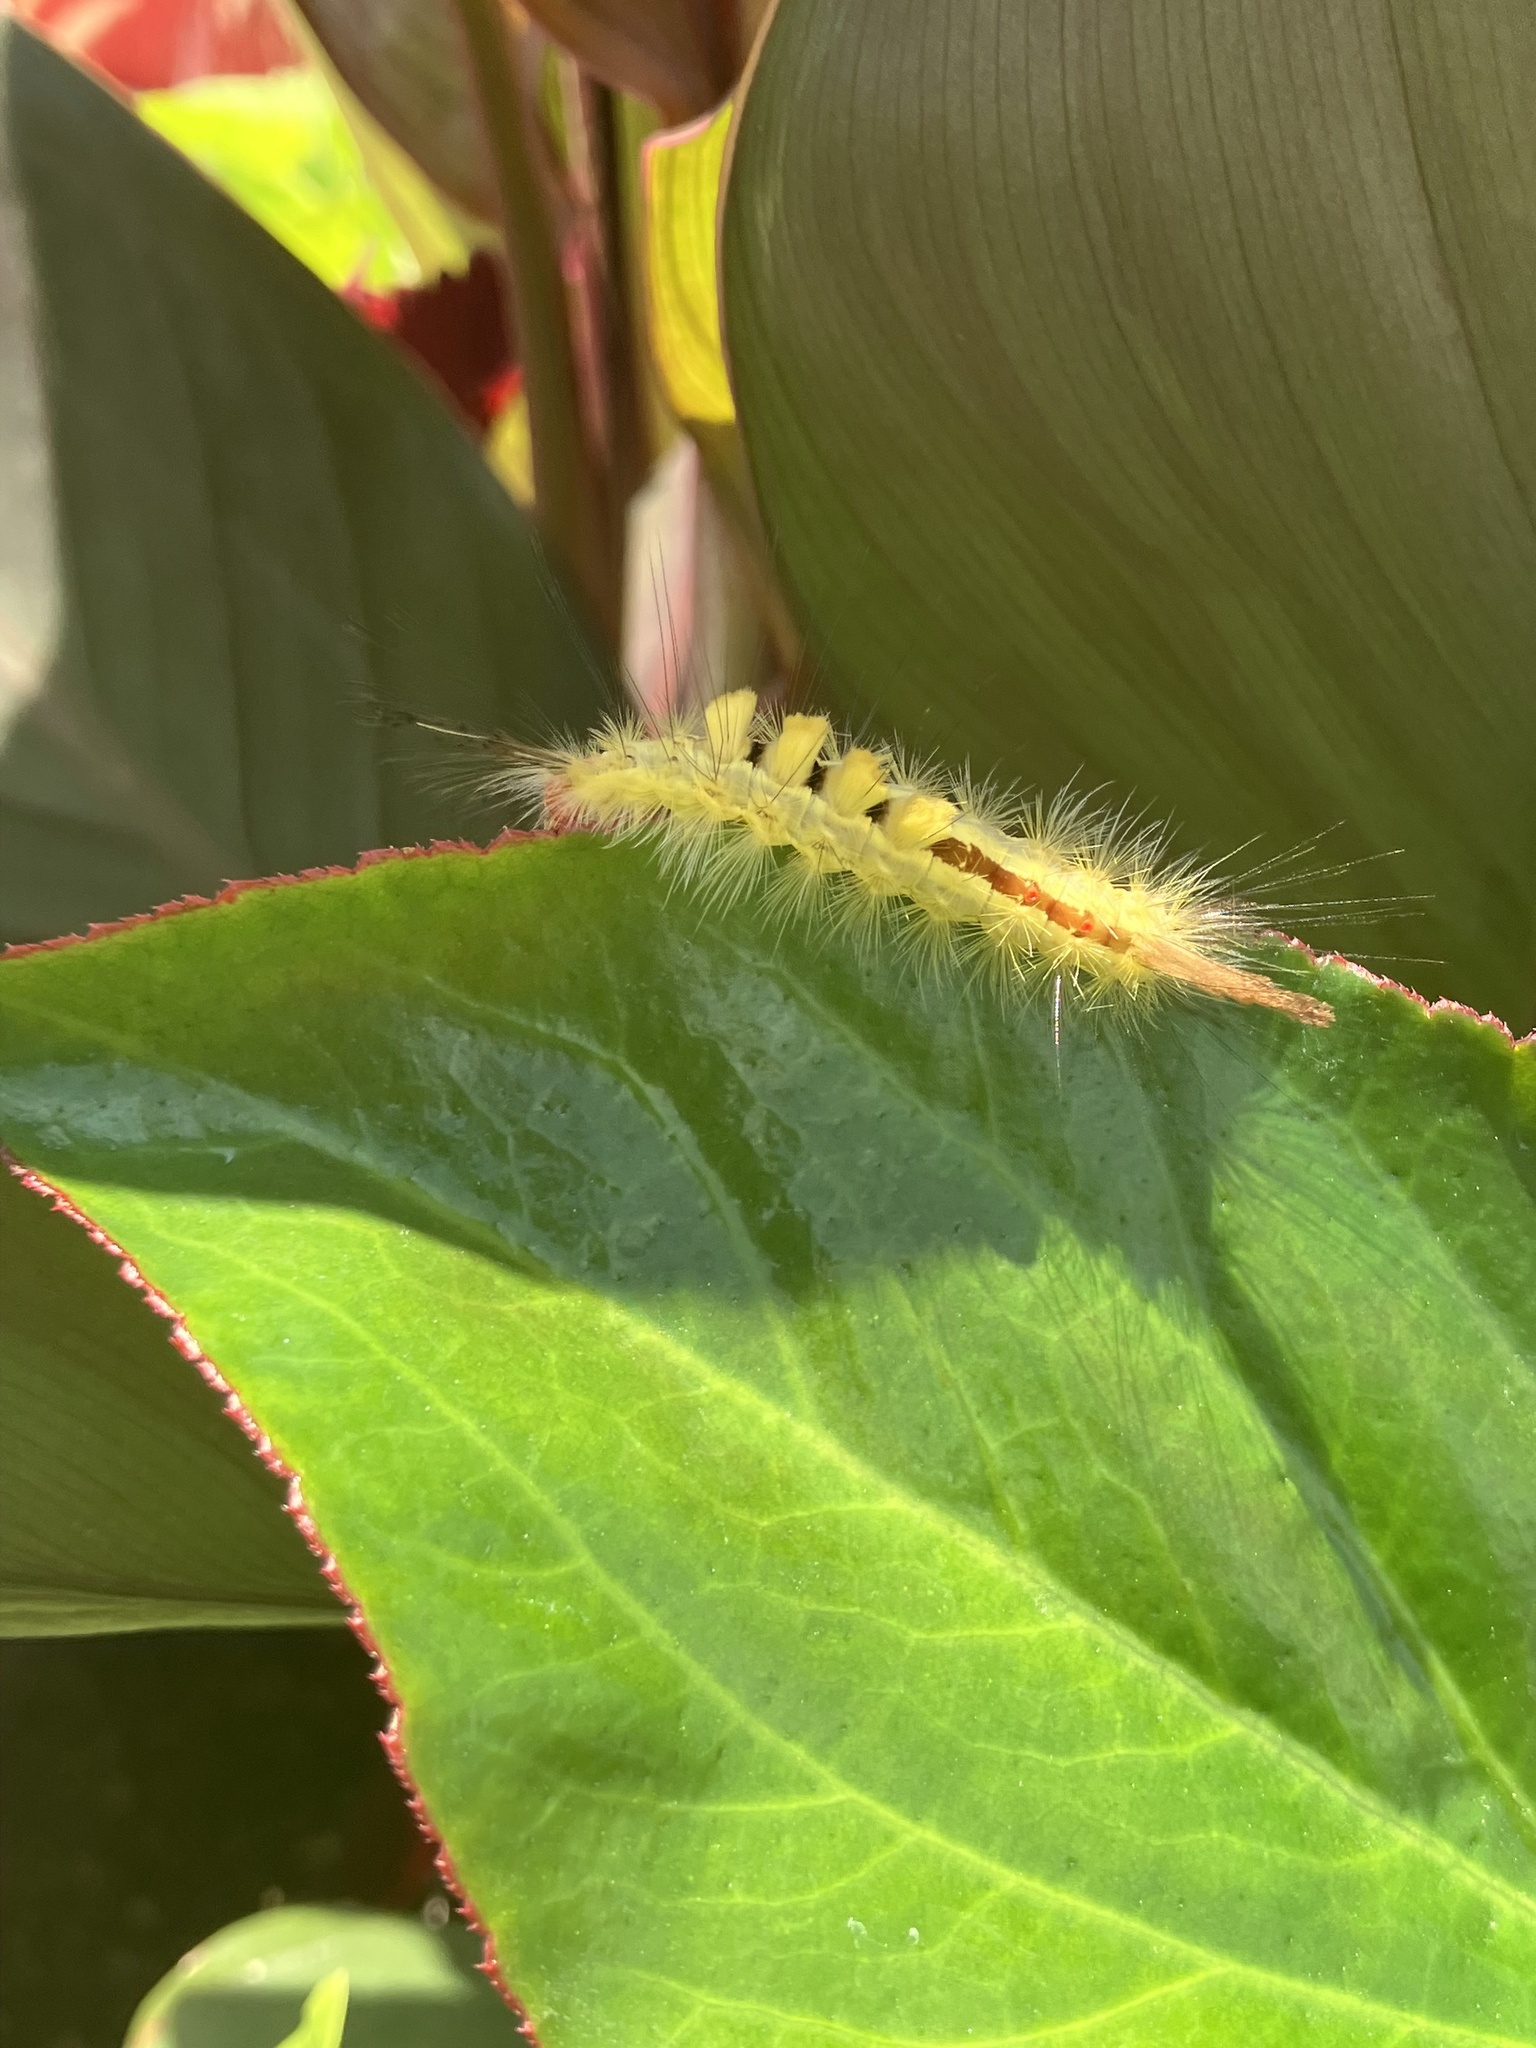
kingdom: Animalia
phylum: Arthropoda
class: Insecta
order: Lepidoptera
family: Erebidae
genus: Orgyia
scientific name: Orgyia leucostigma
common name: White-marked tussock moth
